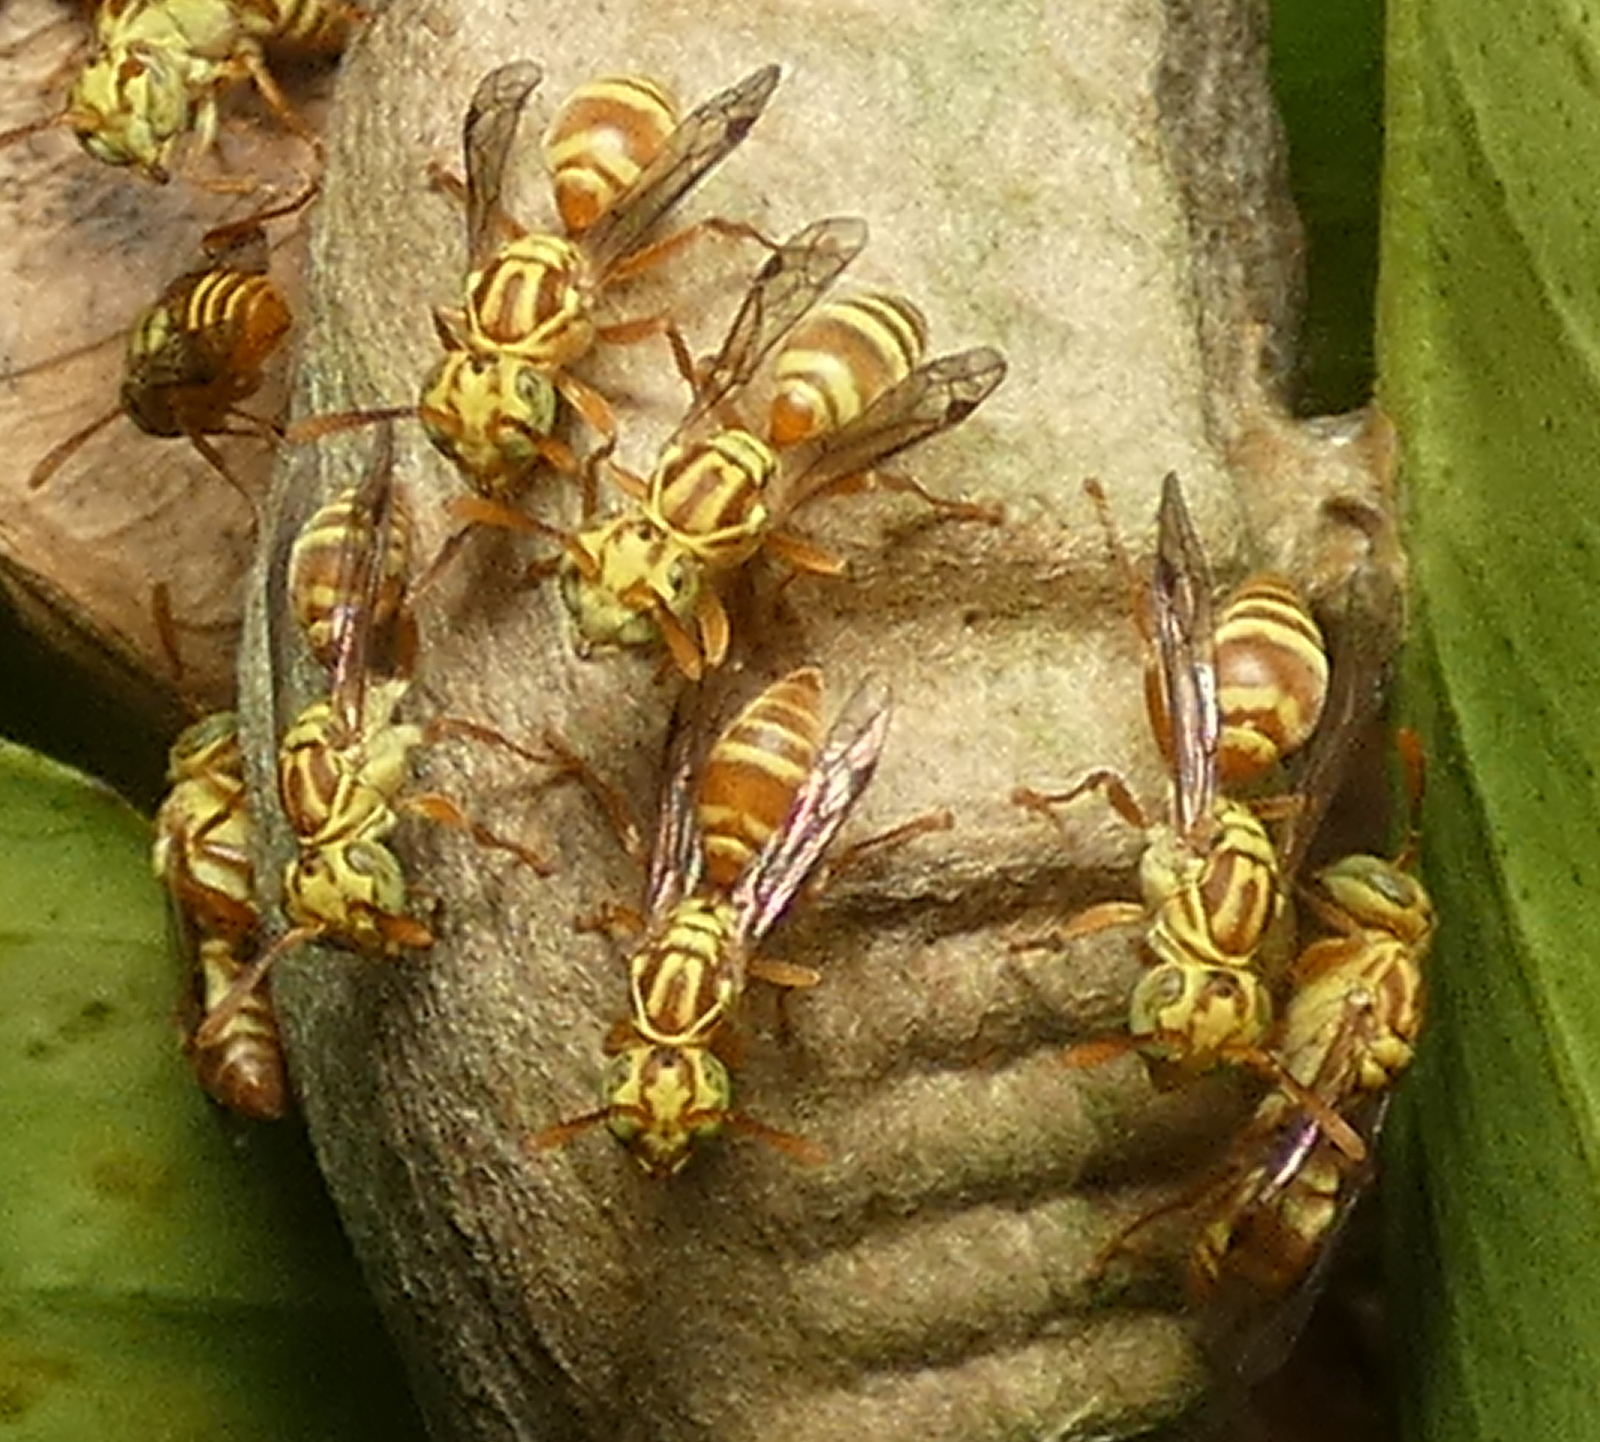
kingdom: Animalia
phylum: Arthropoda
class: Insecta
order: Hymenoptera
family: Vespidae
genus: Protopolybia
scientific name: Protopolybia potiguara
